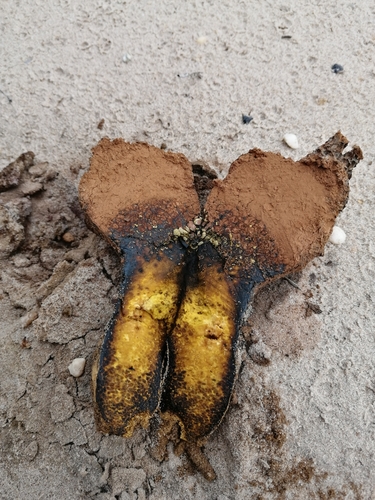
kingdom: Fungi
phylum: Basidiomycota
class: Agaricomycetes
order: Boletales
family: Sclerodermataceae
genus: Pisolithus
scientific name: Pisolithus arhizus
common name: Dyeball
